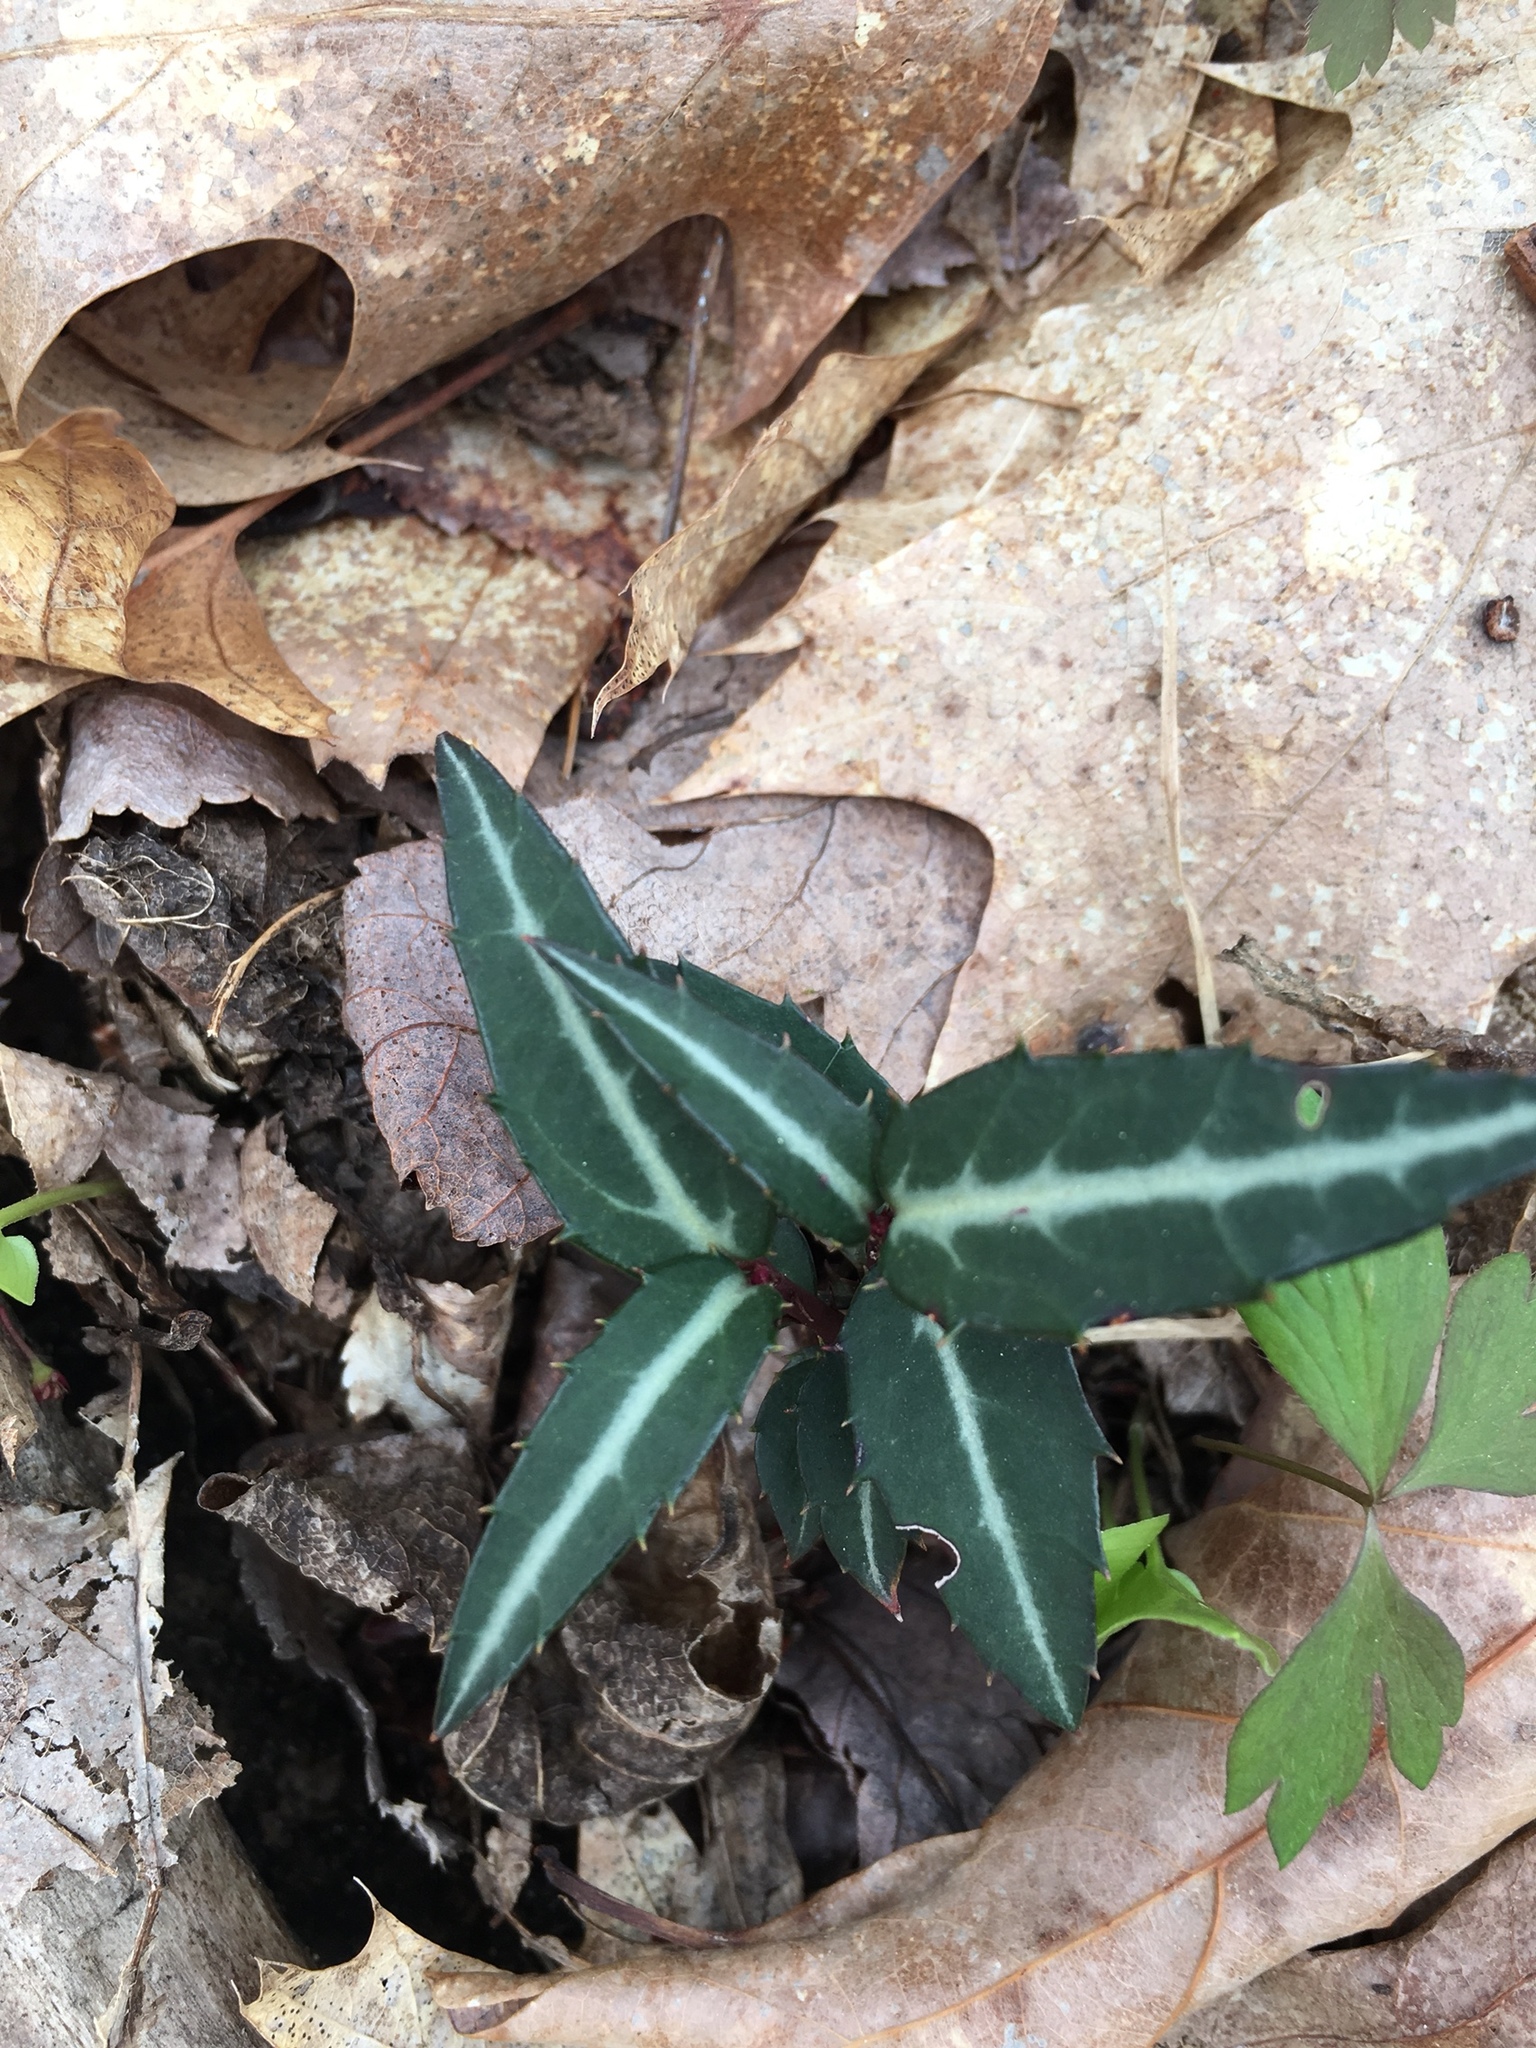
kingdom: Plantae
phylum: Tracheophyta
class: Magnoliopsida
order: Ericales
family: Ericaceae
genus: Chimaphila
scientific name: Chimaphila maculata
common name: Spotted pipsissewa
